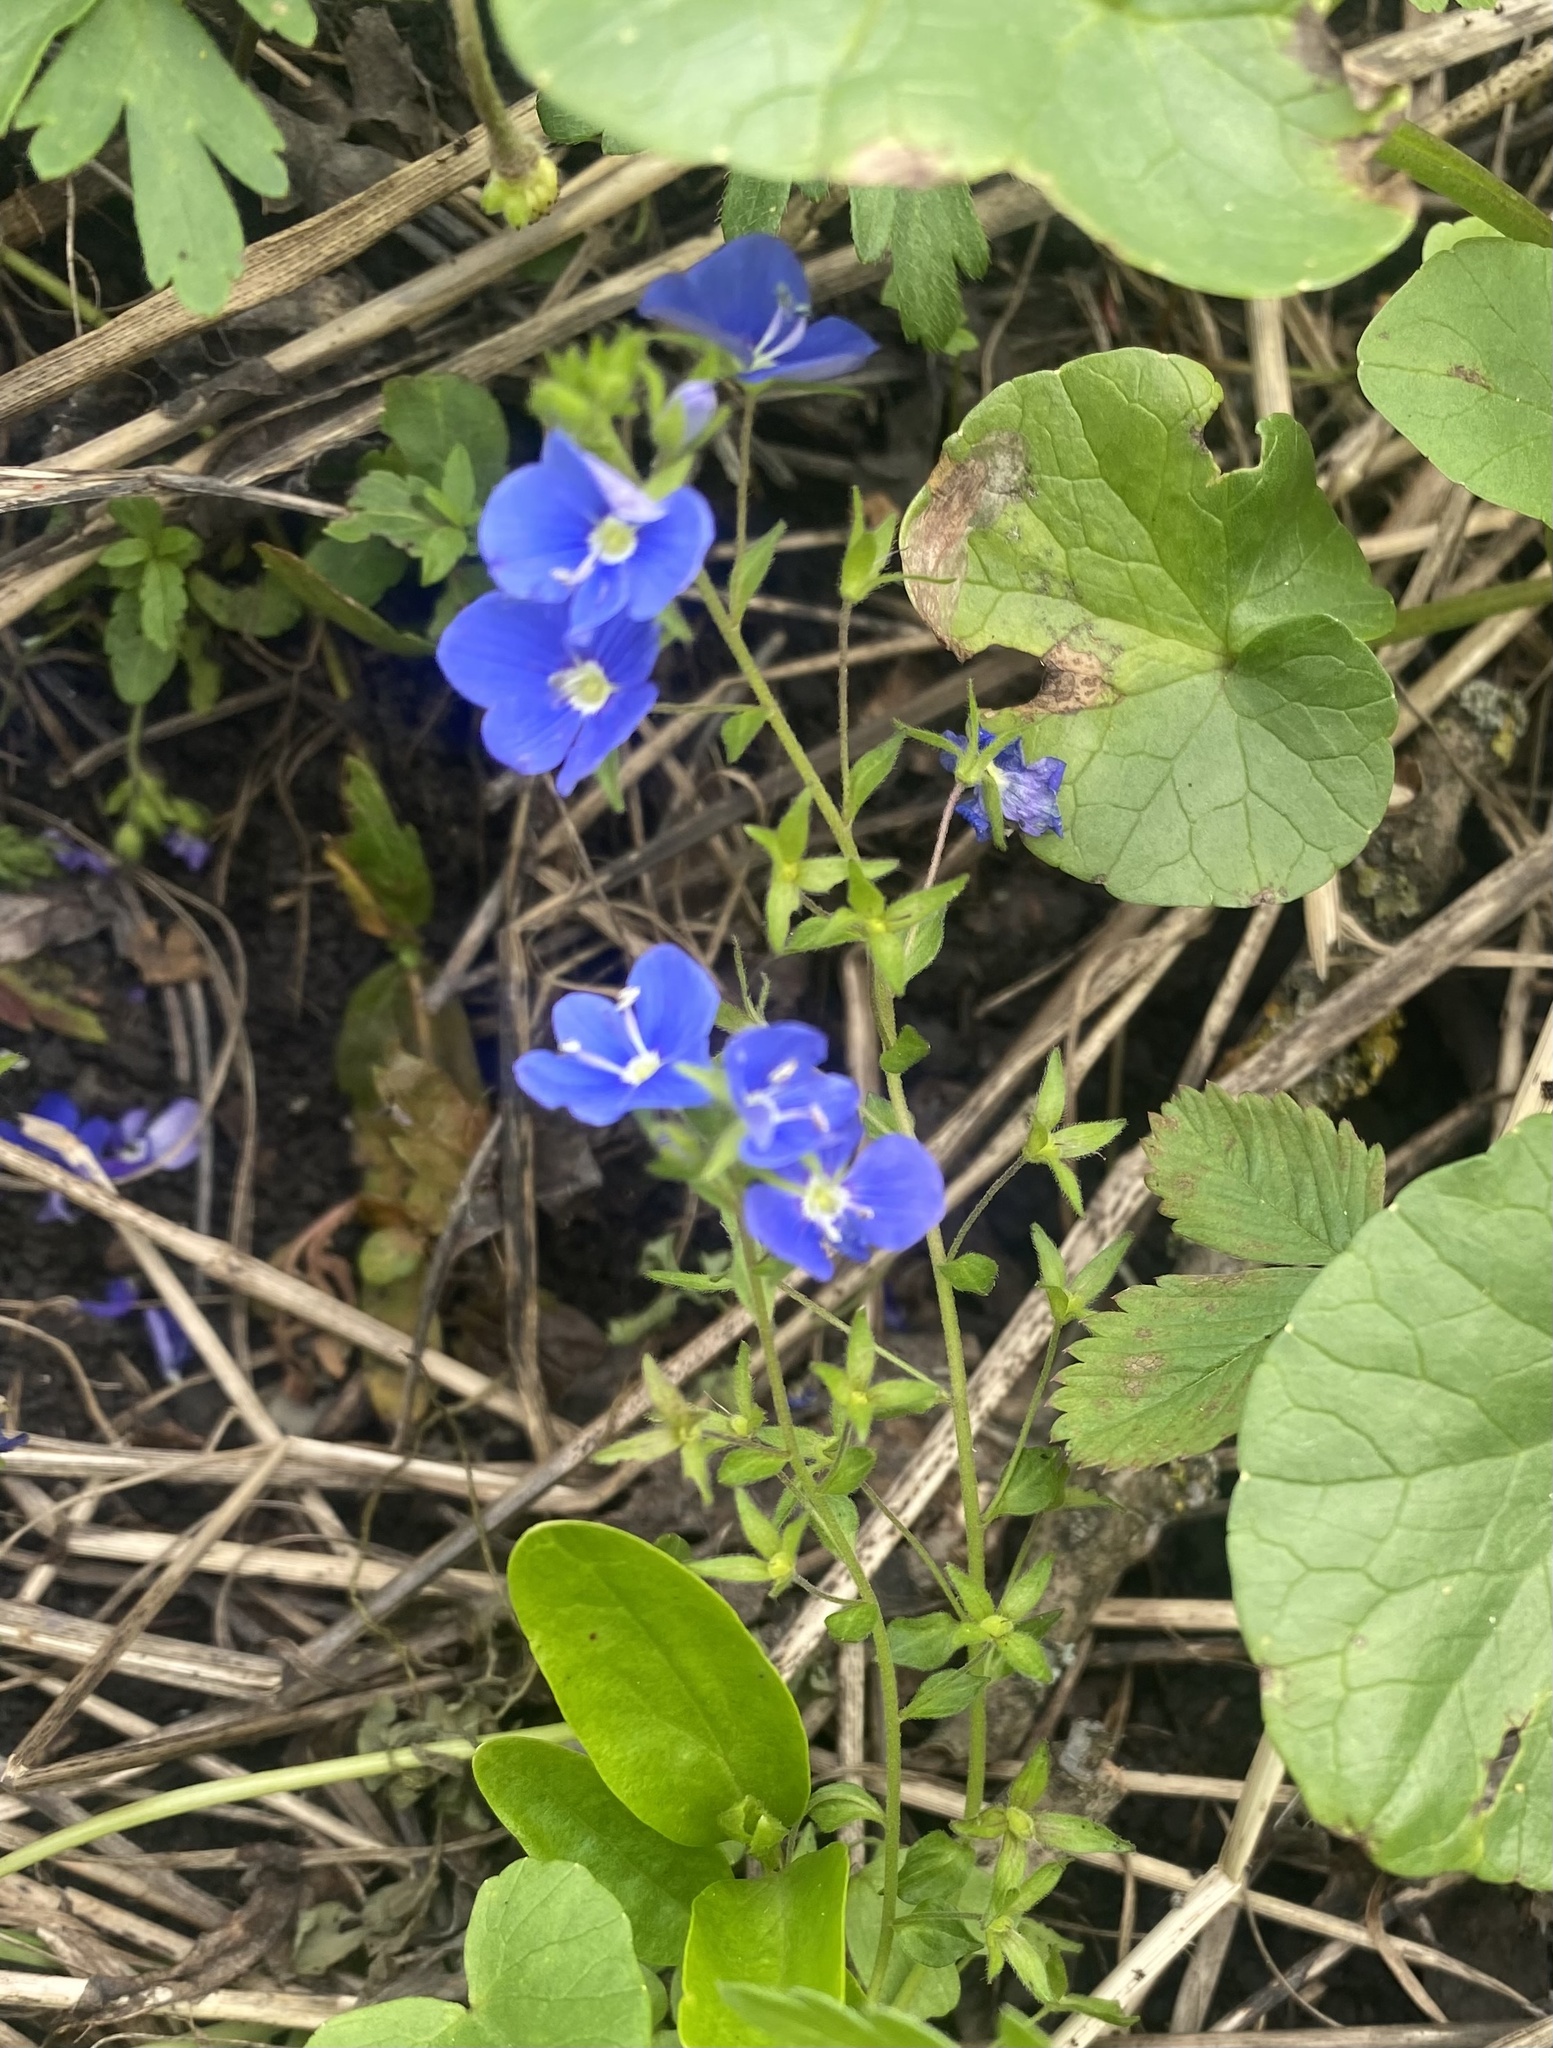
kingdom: Plantae
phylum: Tracheophyta
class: Magnoliopsida
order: Lamiales
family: Plantaginaceae
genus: Veronica
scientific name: Veronica
